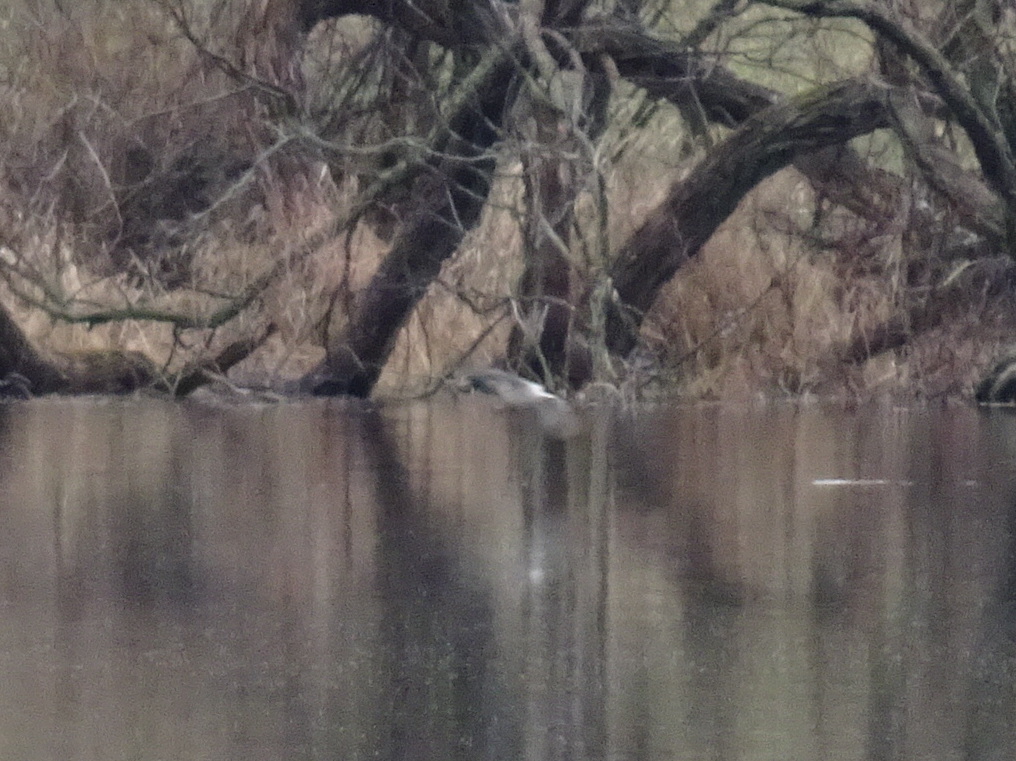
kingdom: Animalia
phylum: Chordata
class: Aves
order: Anseriformes
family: Anatidae
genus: Anas
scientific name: Anas platyrhynchos
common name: Mallard
